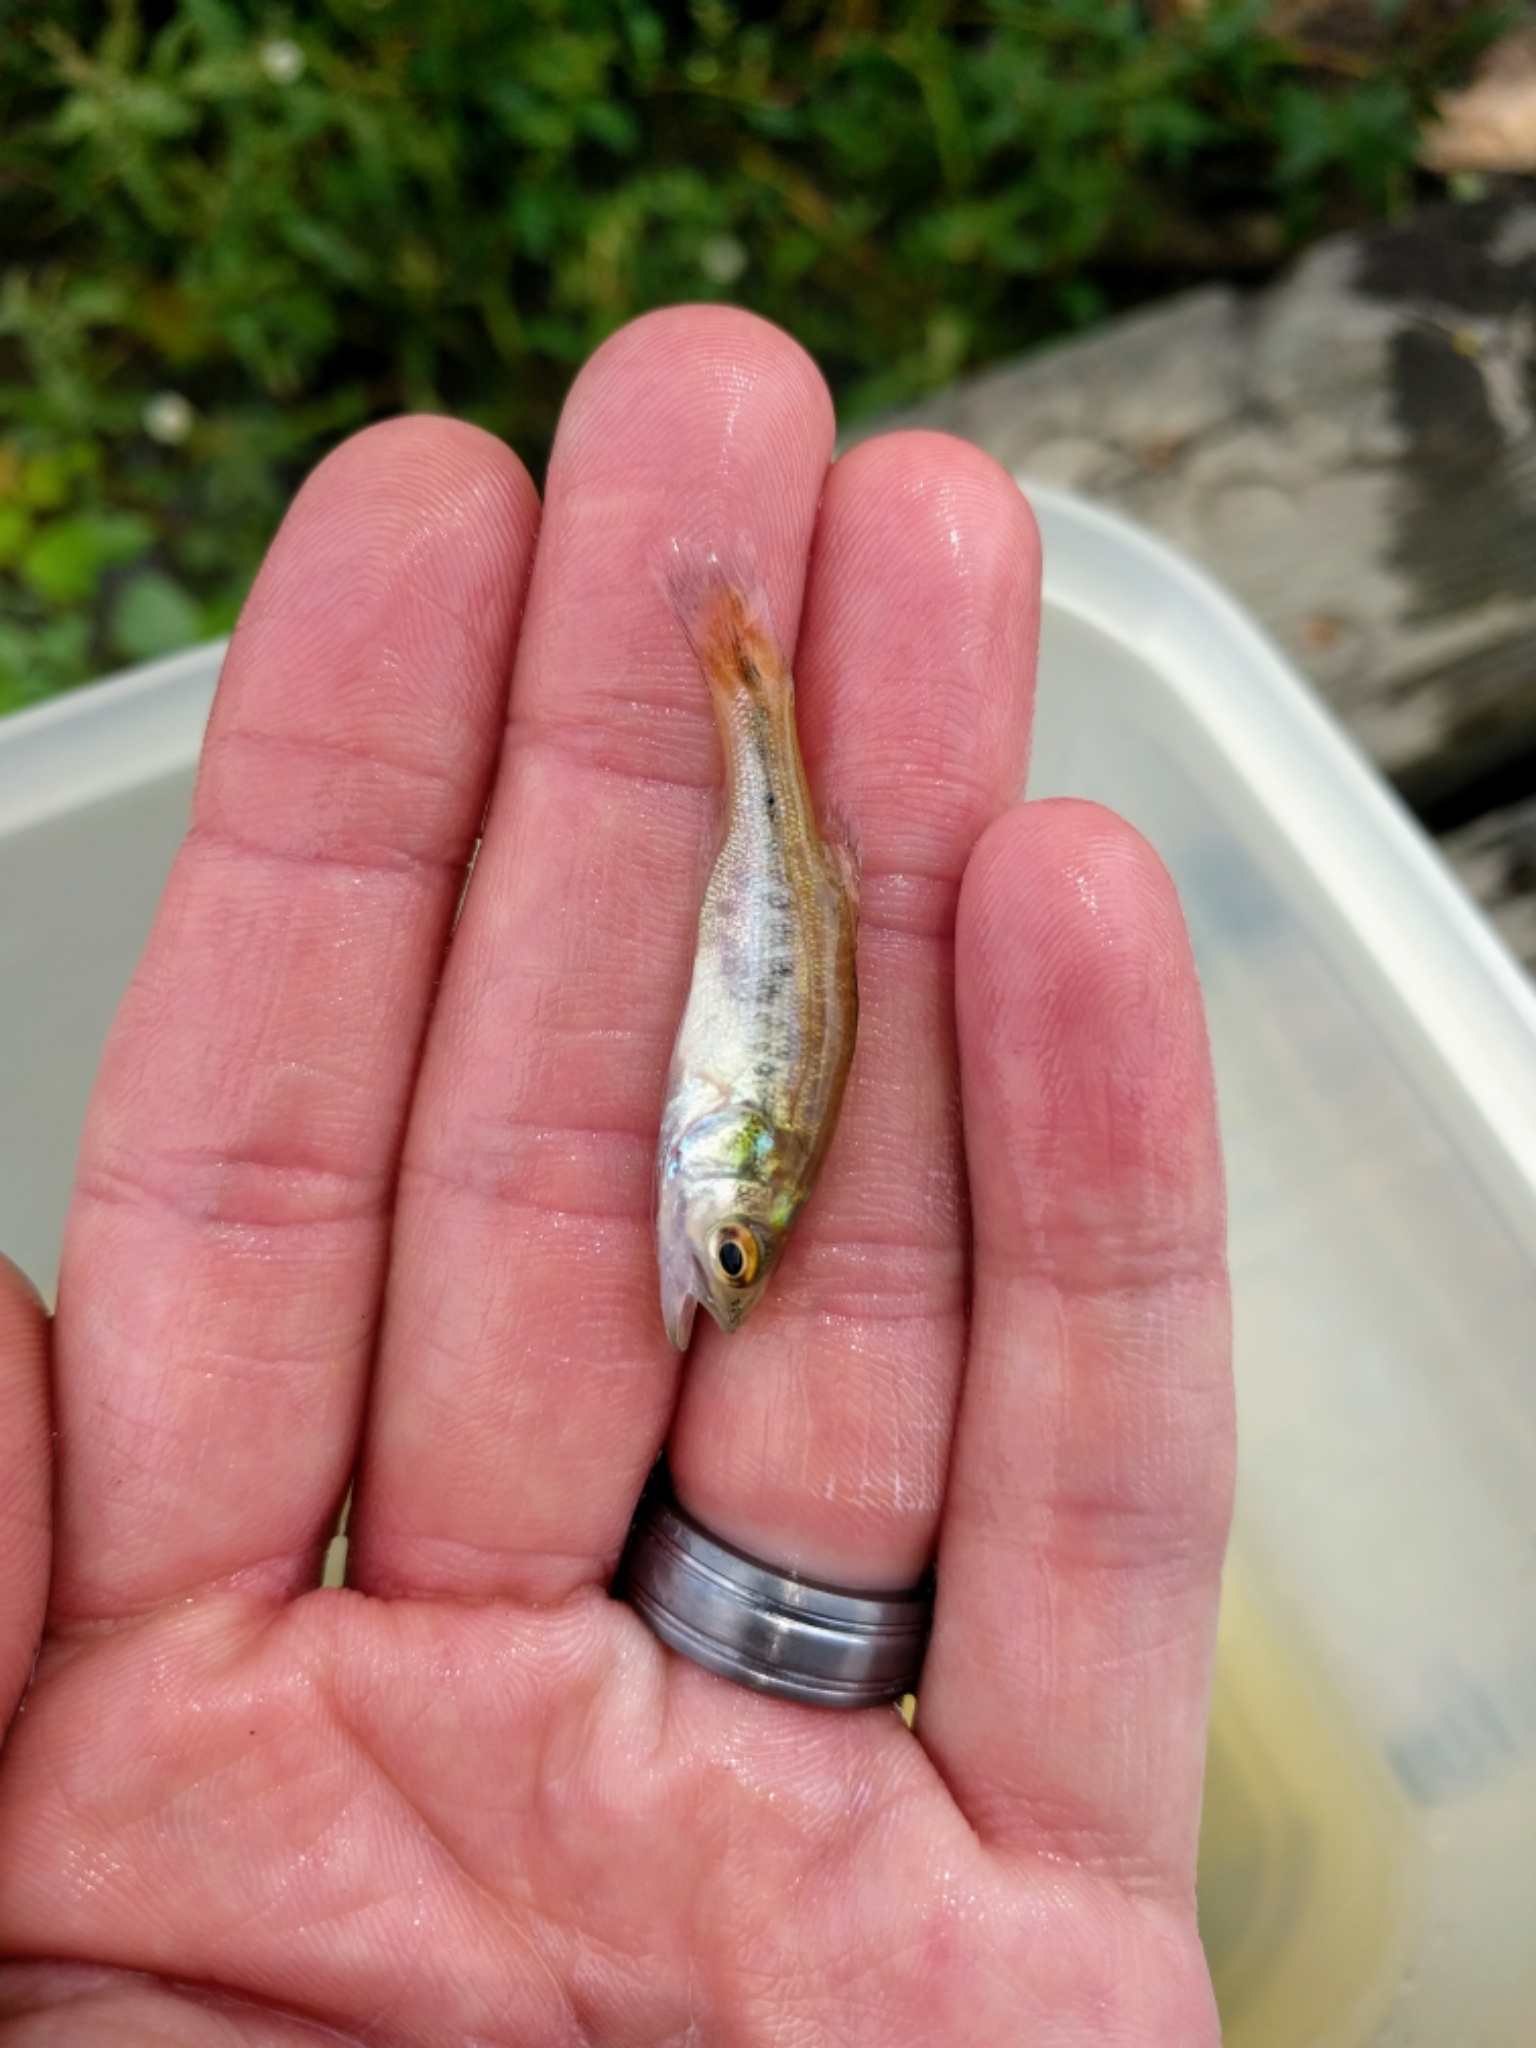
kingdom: Animalia
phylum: Chordata
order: Perciformes
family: Centrarchidae
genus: Micropterus
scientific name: Micropterus punctulatus
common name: Spotted bass
